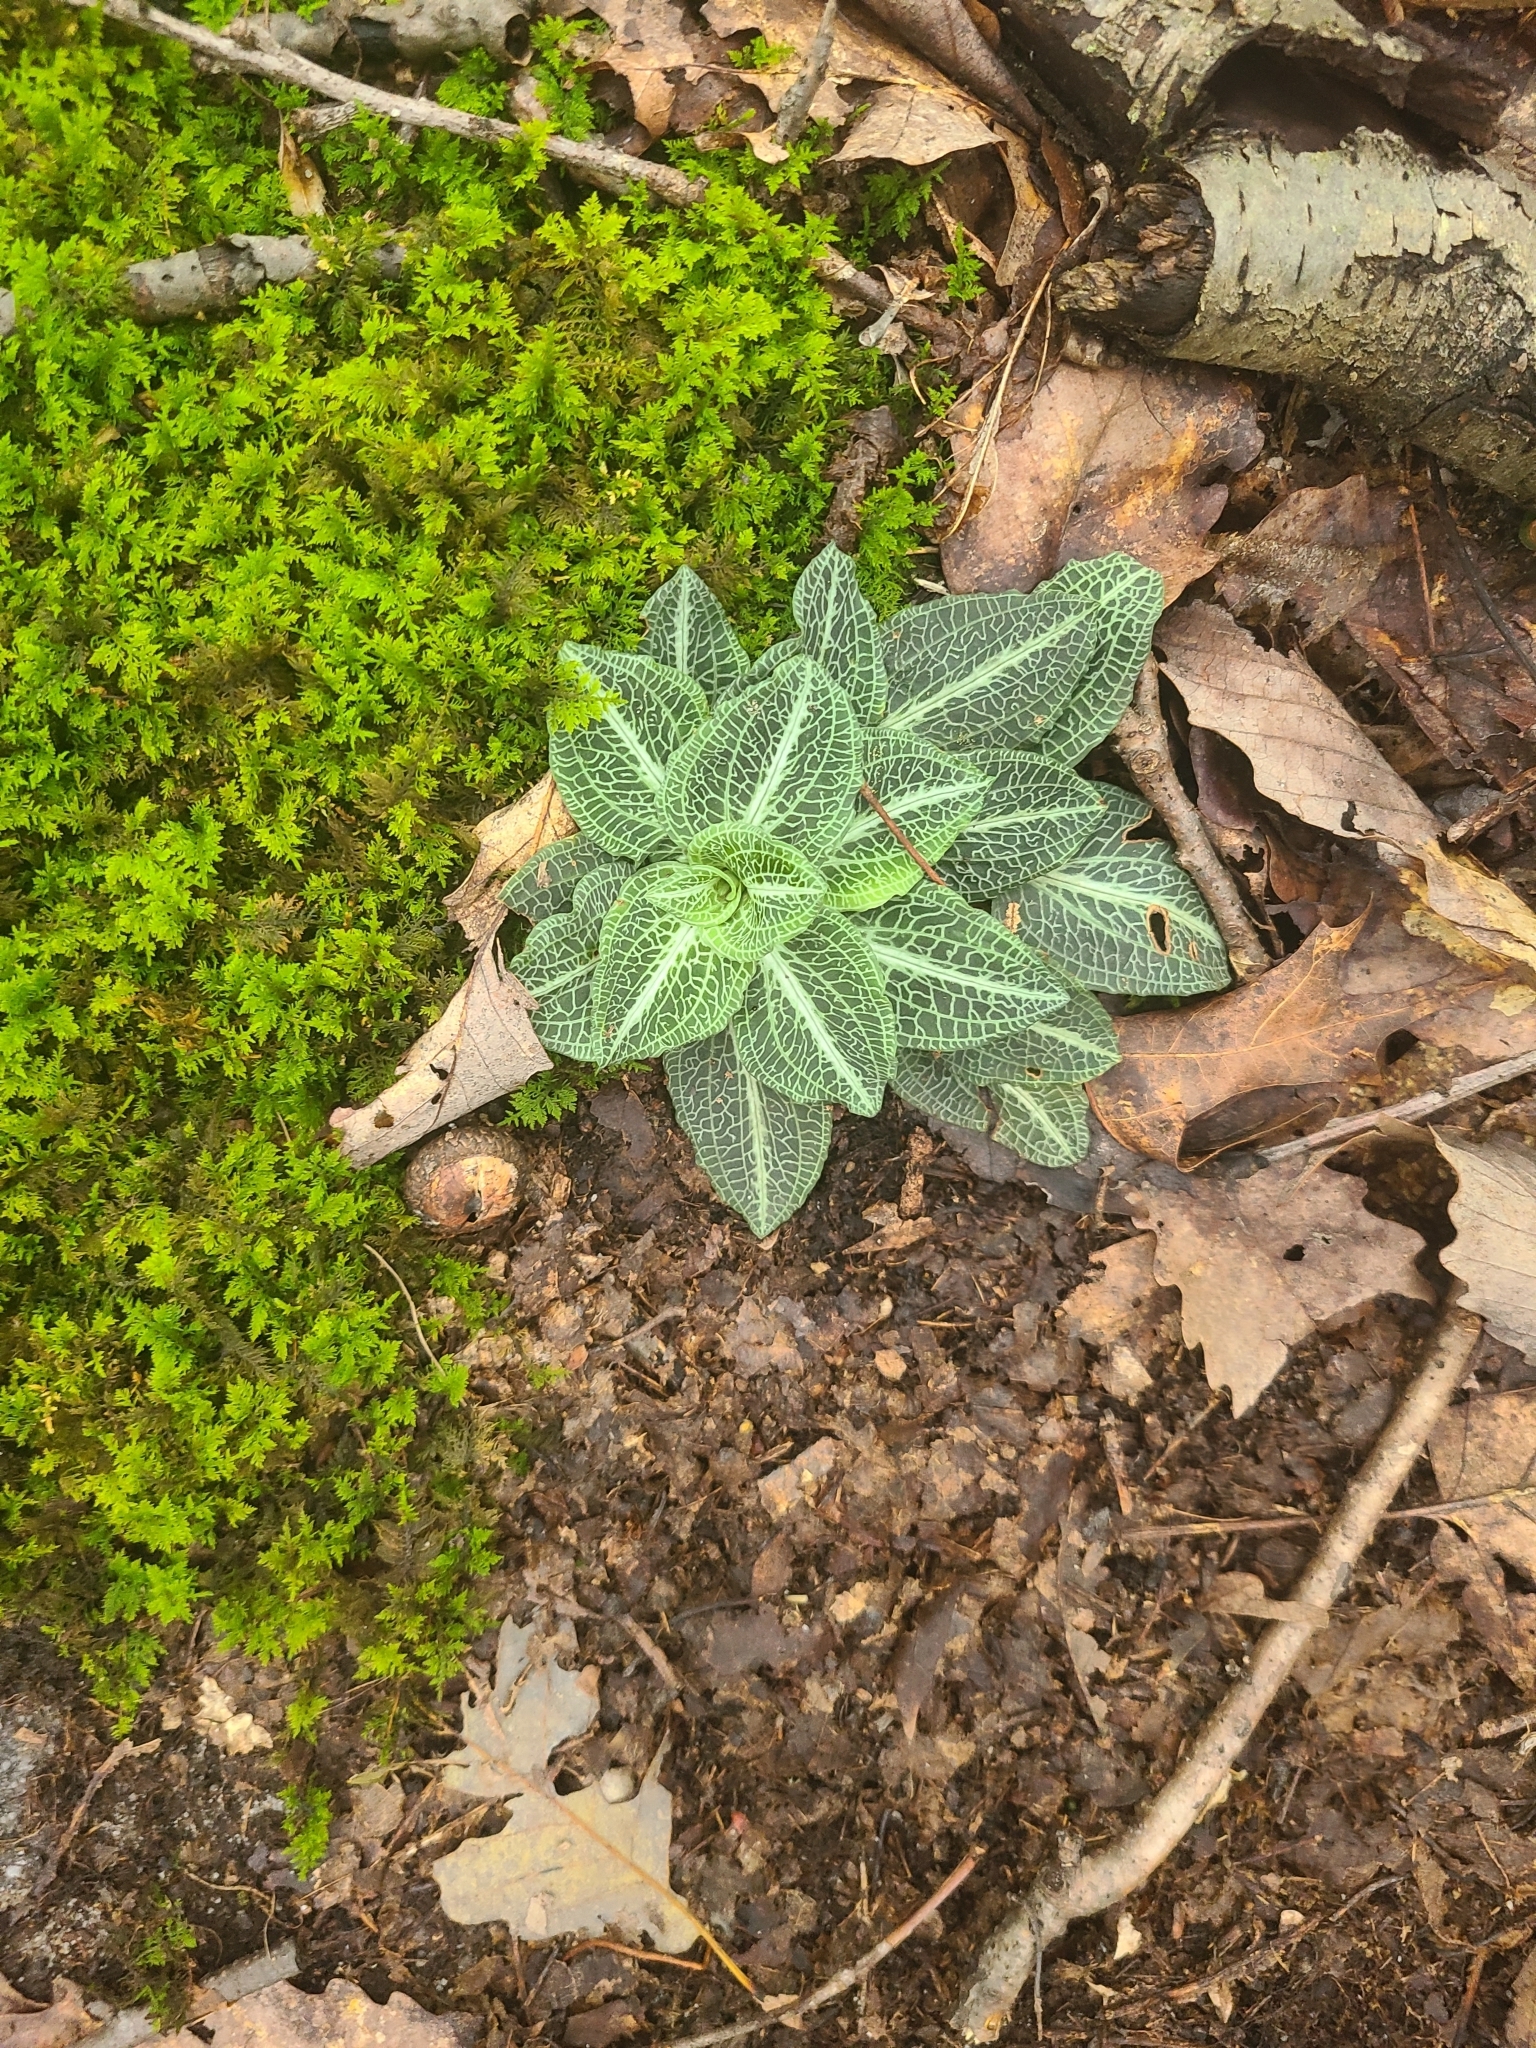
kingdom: Plantae
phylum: Tracheophyta
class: Liliopsida
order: Asparagales
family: Orchidaceae
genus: Goodyera
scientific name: Goodyera pubescens
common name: Downy rattlesnake-plantain
